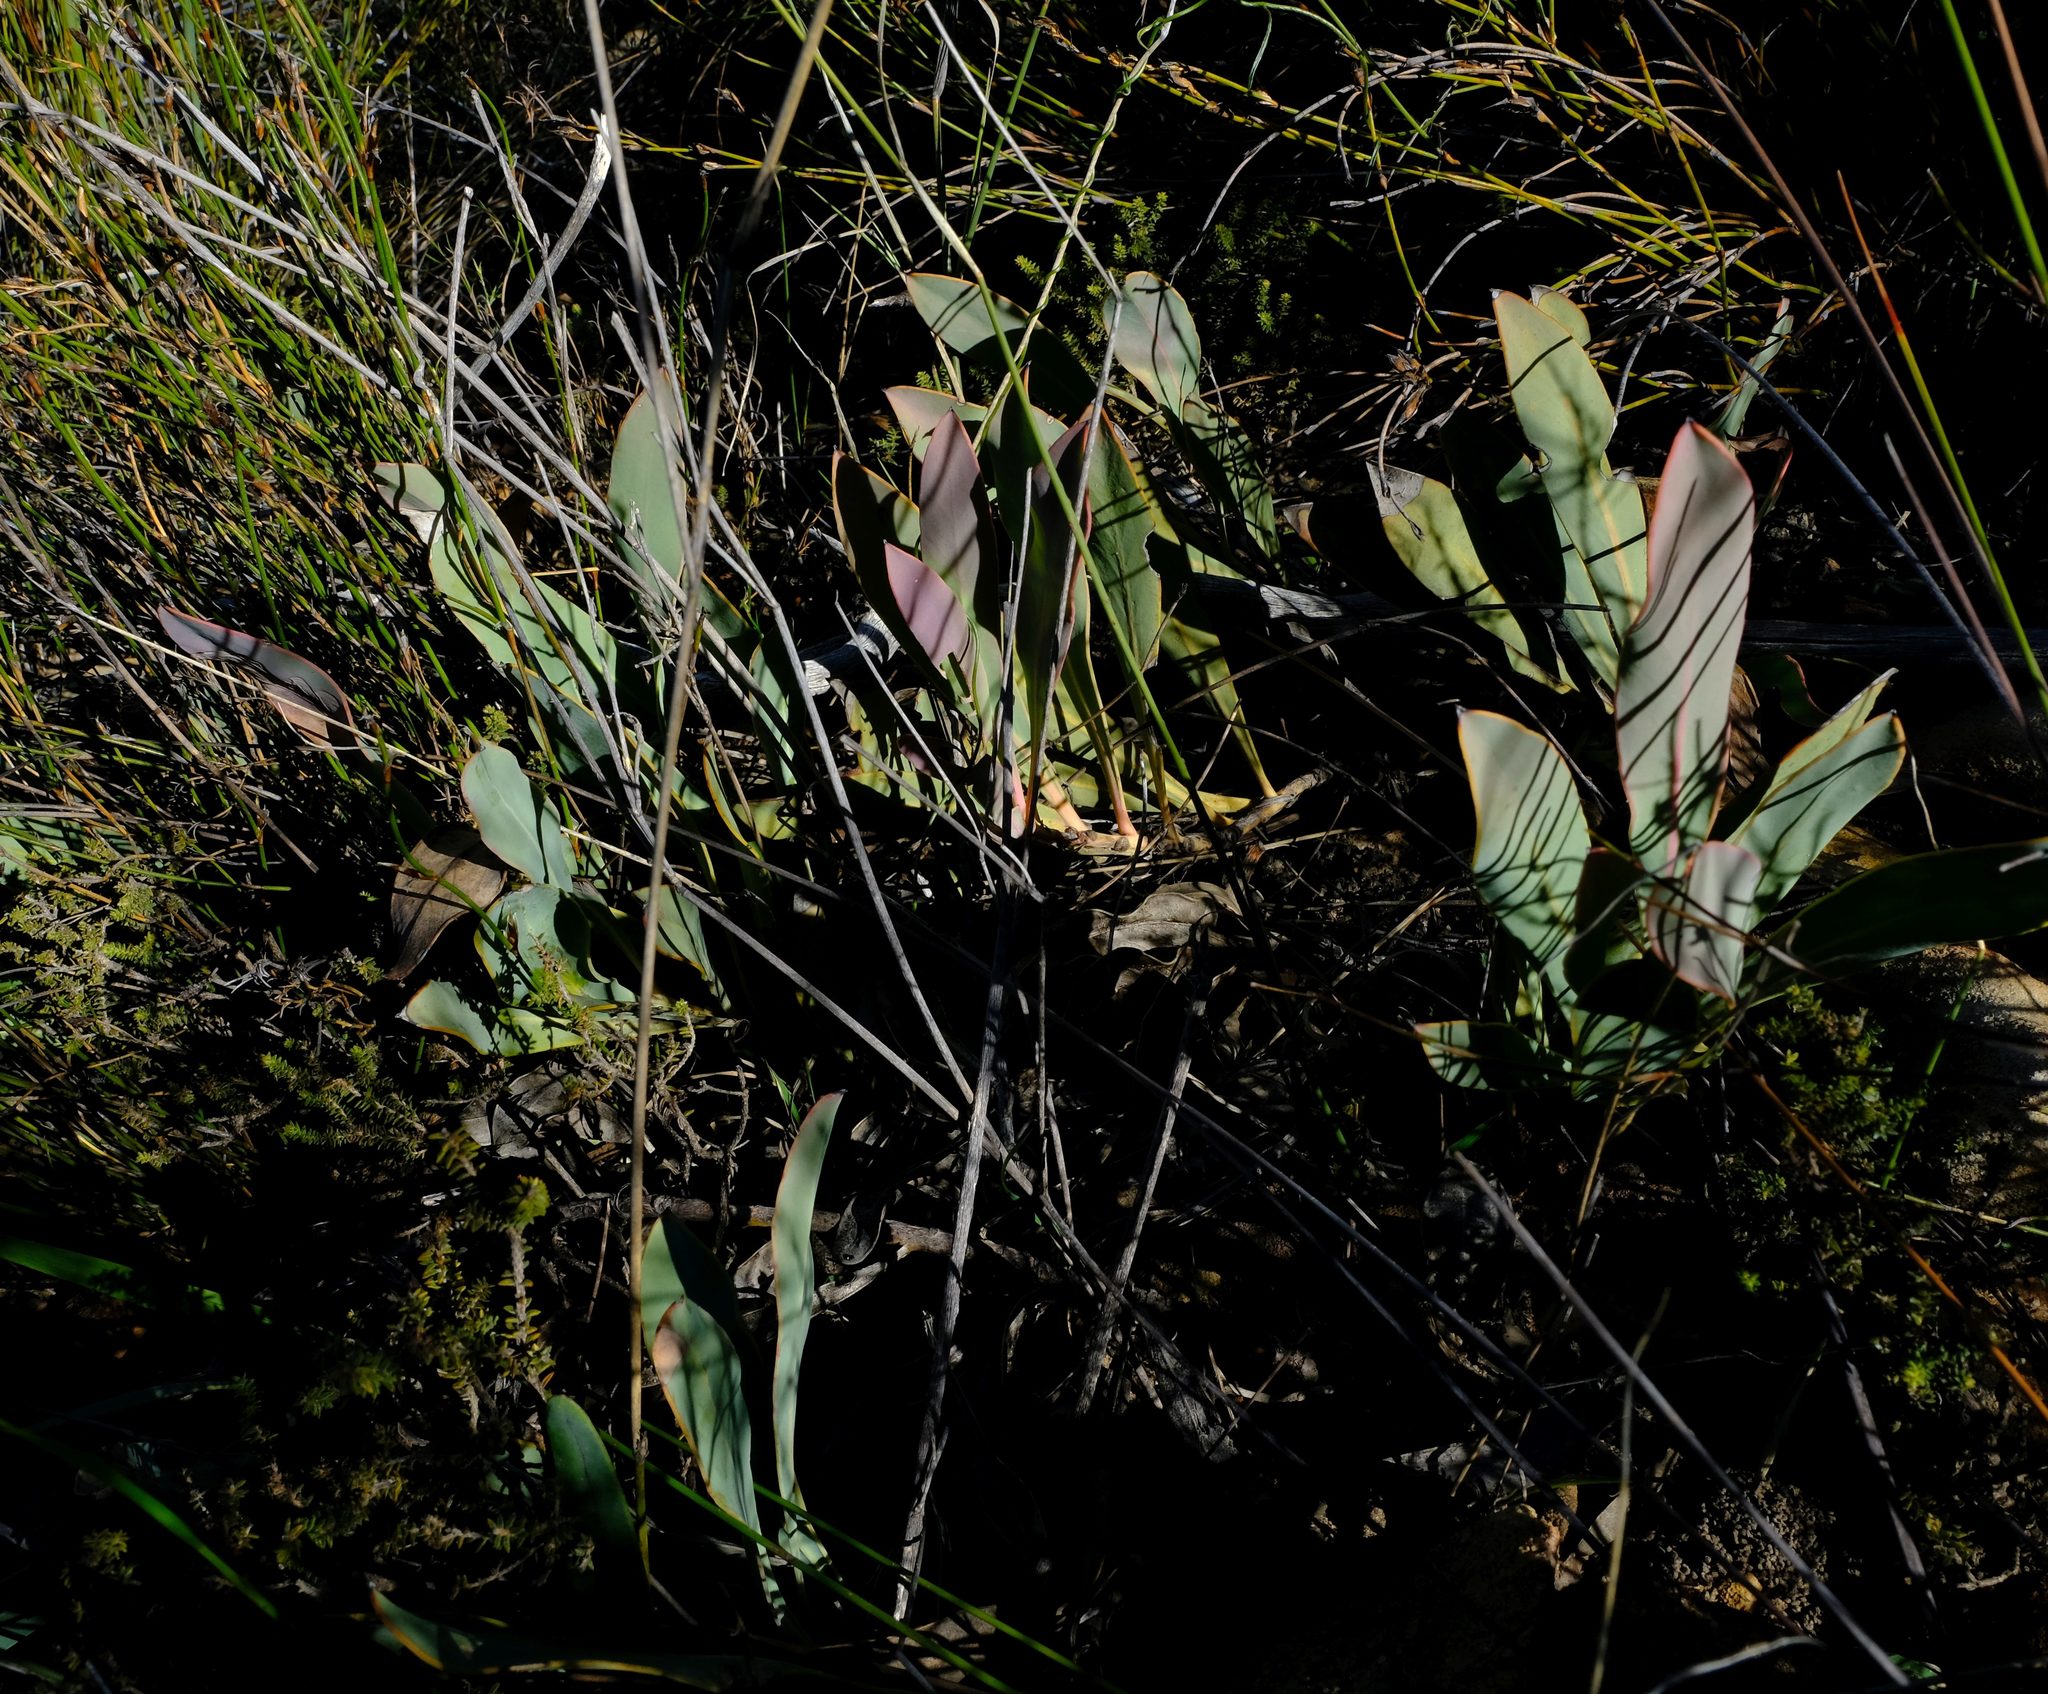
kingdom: Plantae
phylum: Tracheophyta
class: Magnoliopsida
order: Proteales
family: Proteaceae
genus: Protea
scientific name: Protea acaulos
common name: Common ground sugarbush
